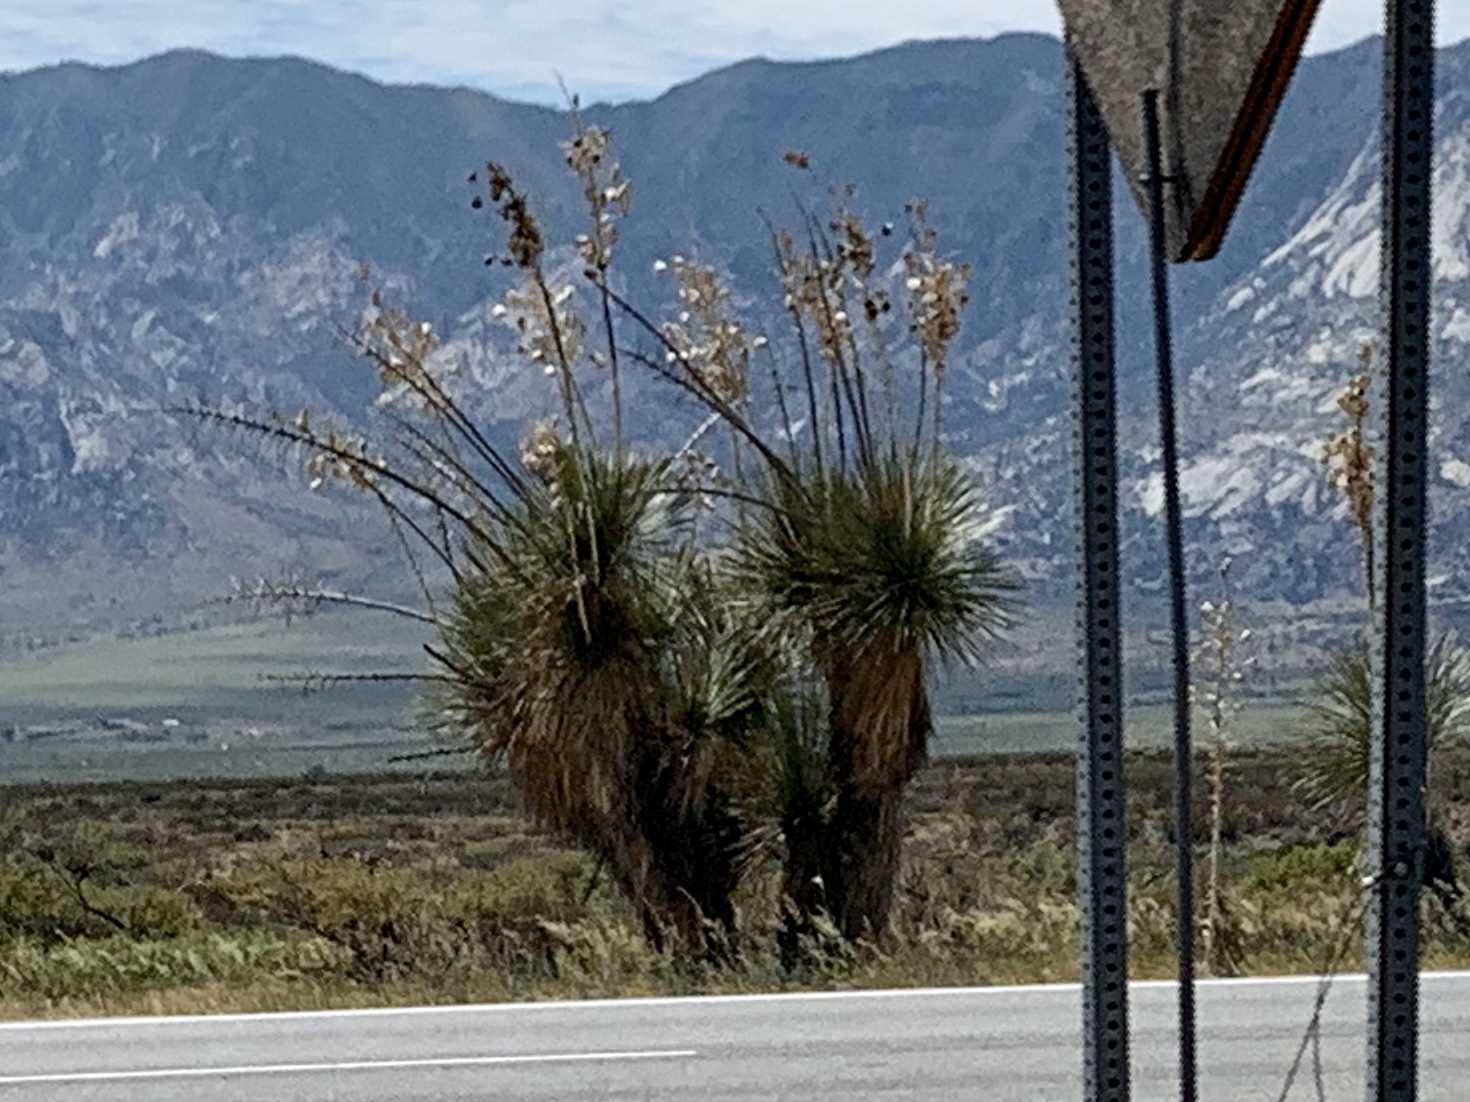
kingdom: Plantae
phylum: Tracheophyta
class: Liliopsida
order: Asparagales
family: Asparagaceae
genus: Yucca
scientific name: Yucca elata
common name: Palmella
